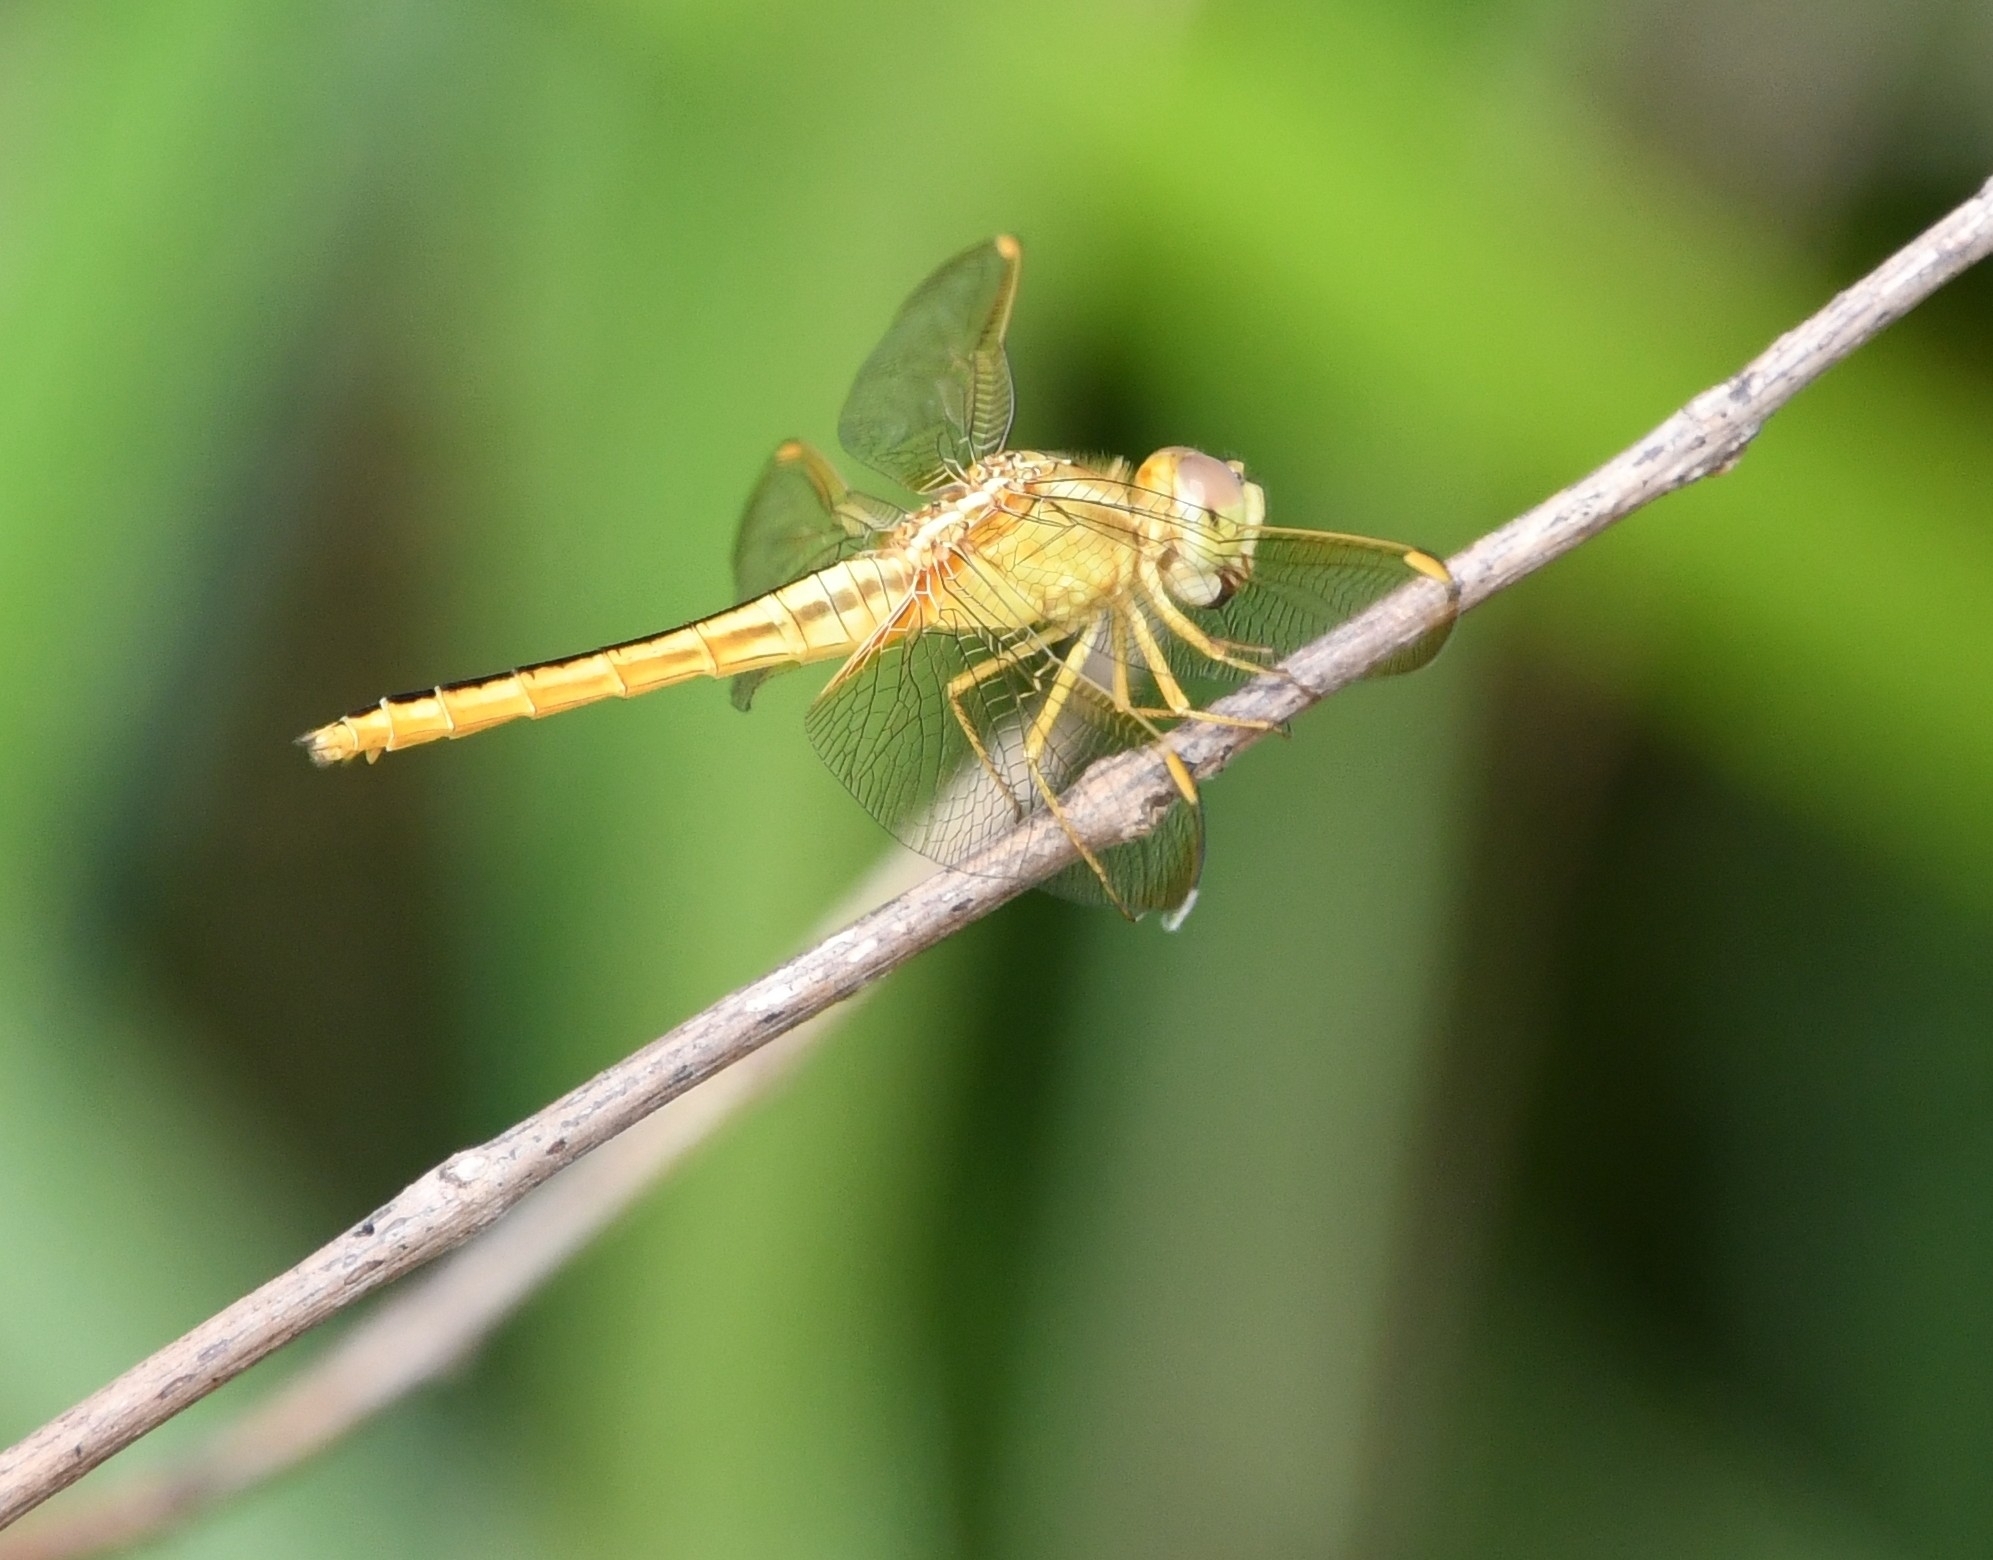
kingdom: Animalia
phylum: Arthropoda
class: Insecta
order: Odonata
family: Libellulidae
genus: Crocothemis
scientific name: Crocothemis servilia
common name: Scarlet skimmer
